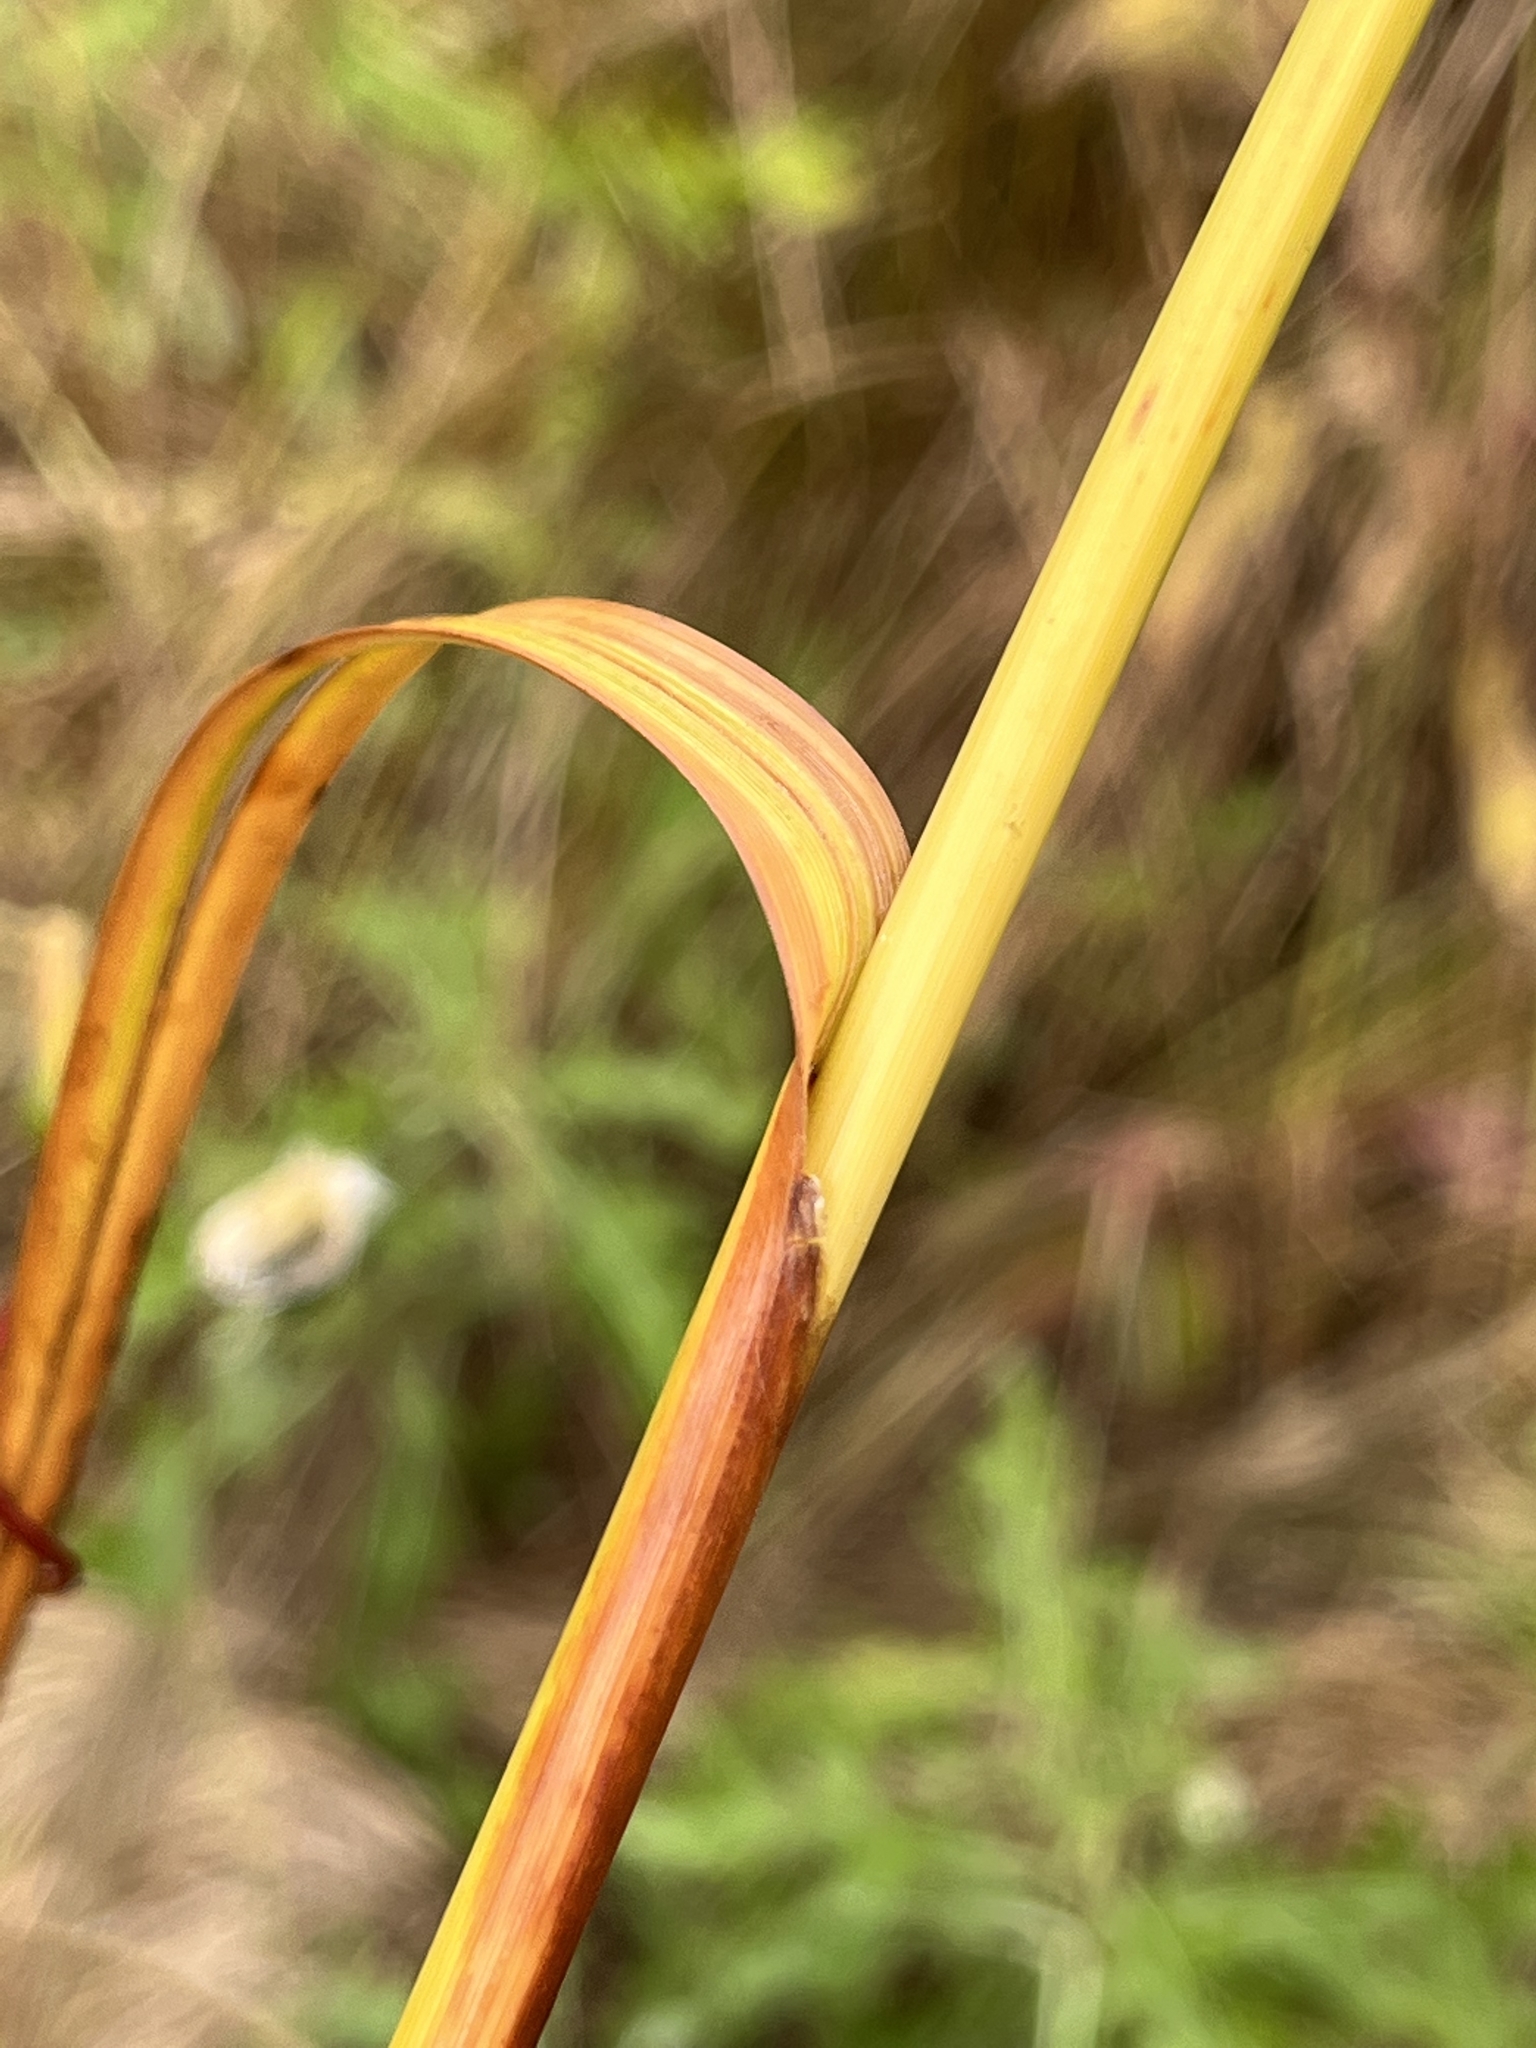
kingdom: Plantae
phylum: Tracheophyta
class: Liliopsida
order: Poales
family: Cyperaceae
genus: Scirpus
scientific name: Scirpus cyperinus
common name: Black-sheathed bulrush
